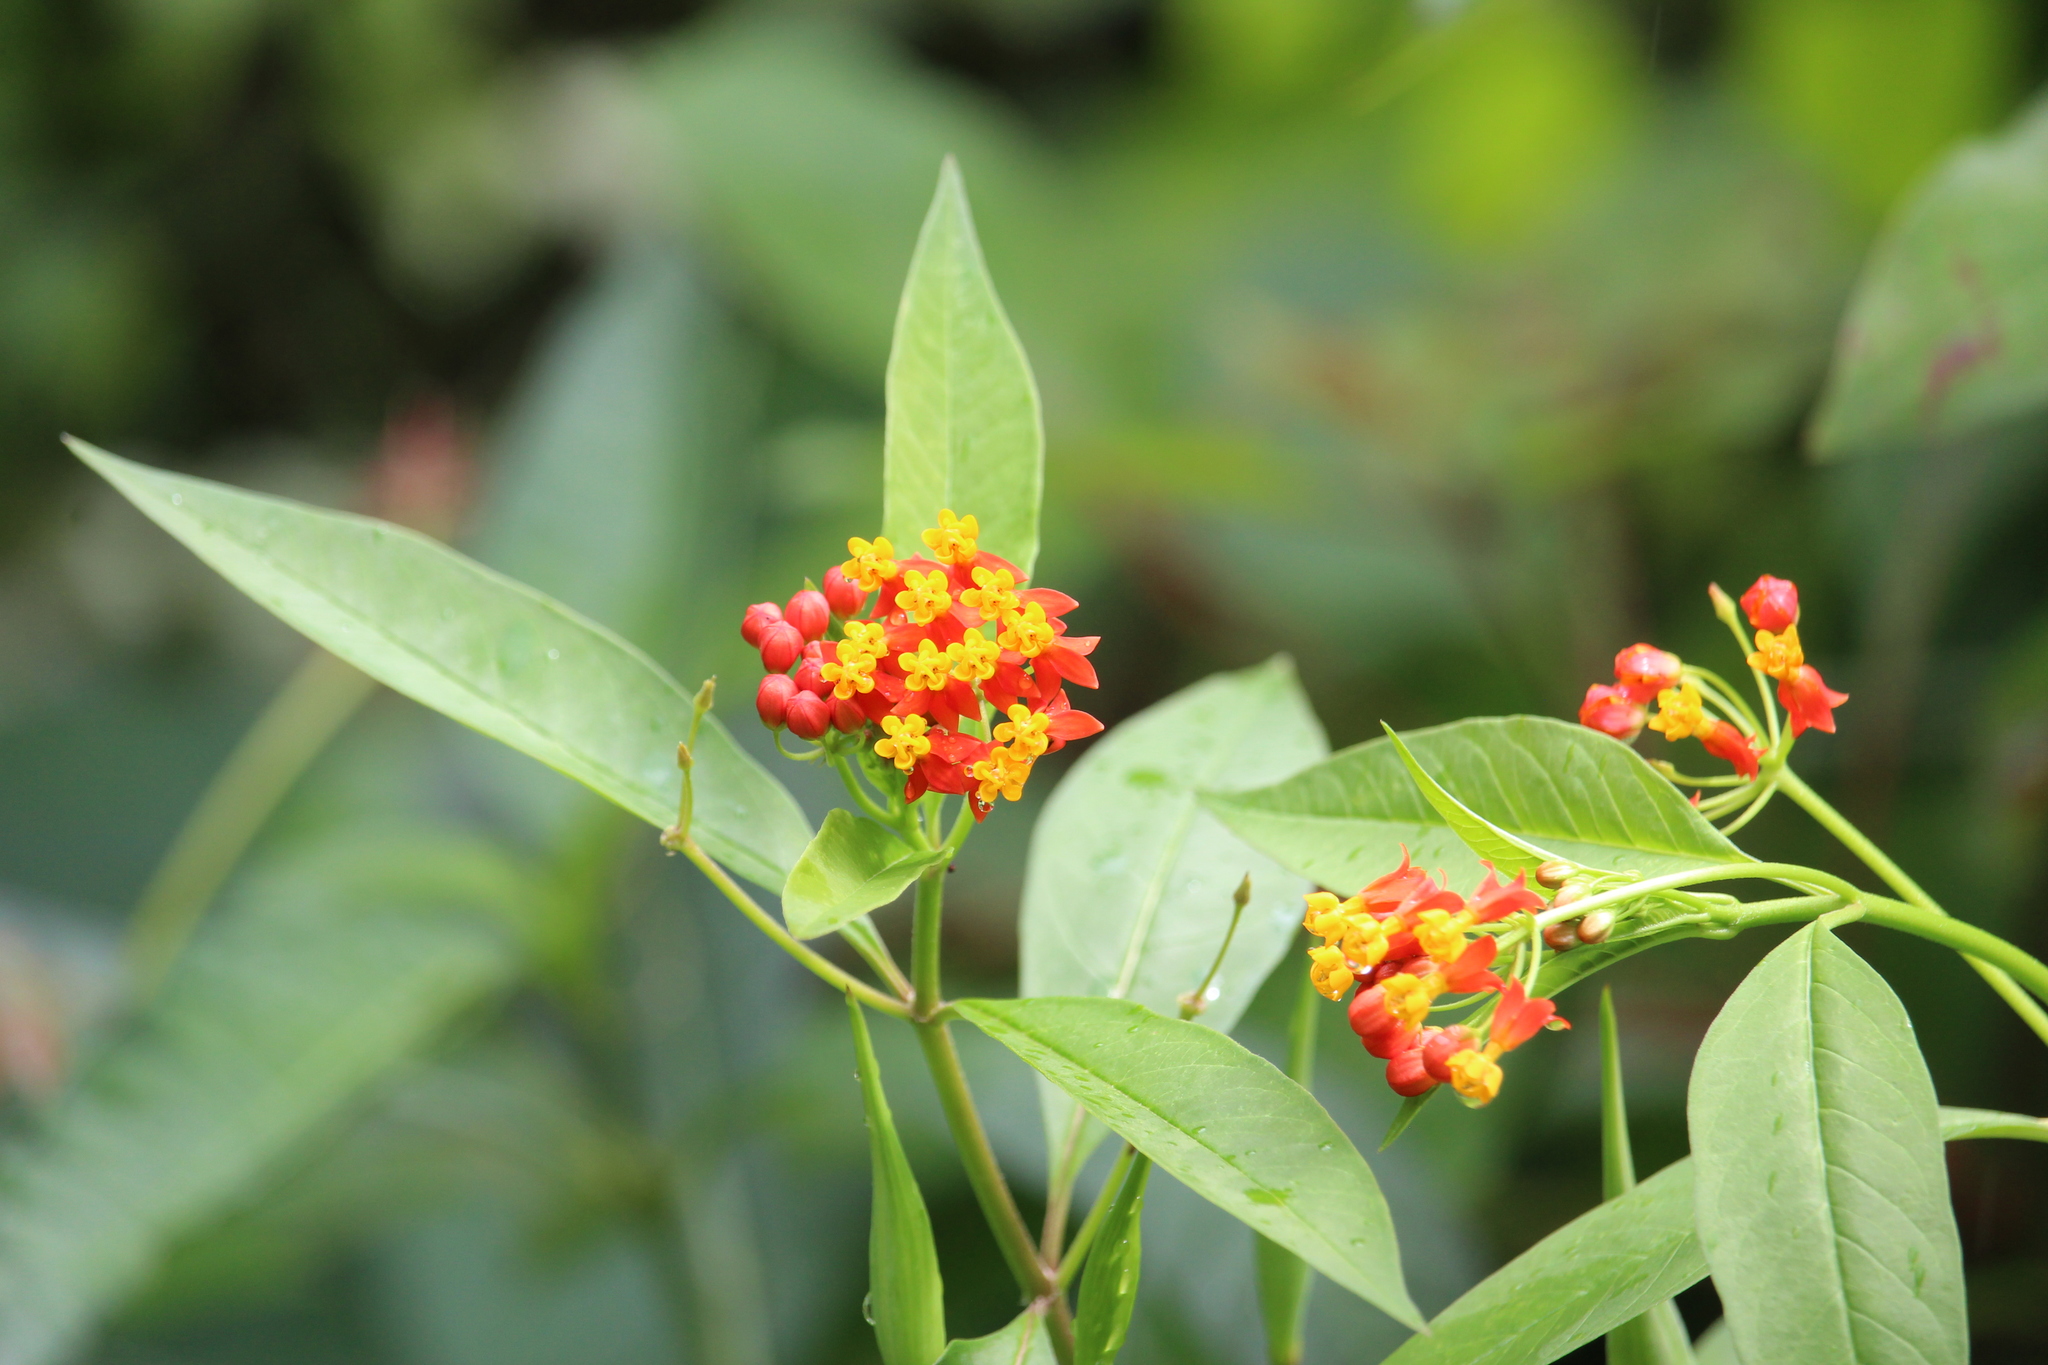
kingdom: Plantae
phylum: Tracheophyta
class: Magnoliopsida
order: Gentianales
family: Apocynaceae
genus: Asclepias
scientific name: Asclepias curassavica
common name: Bloodflower
